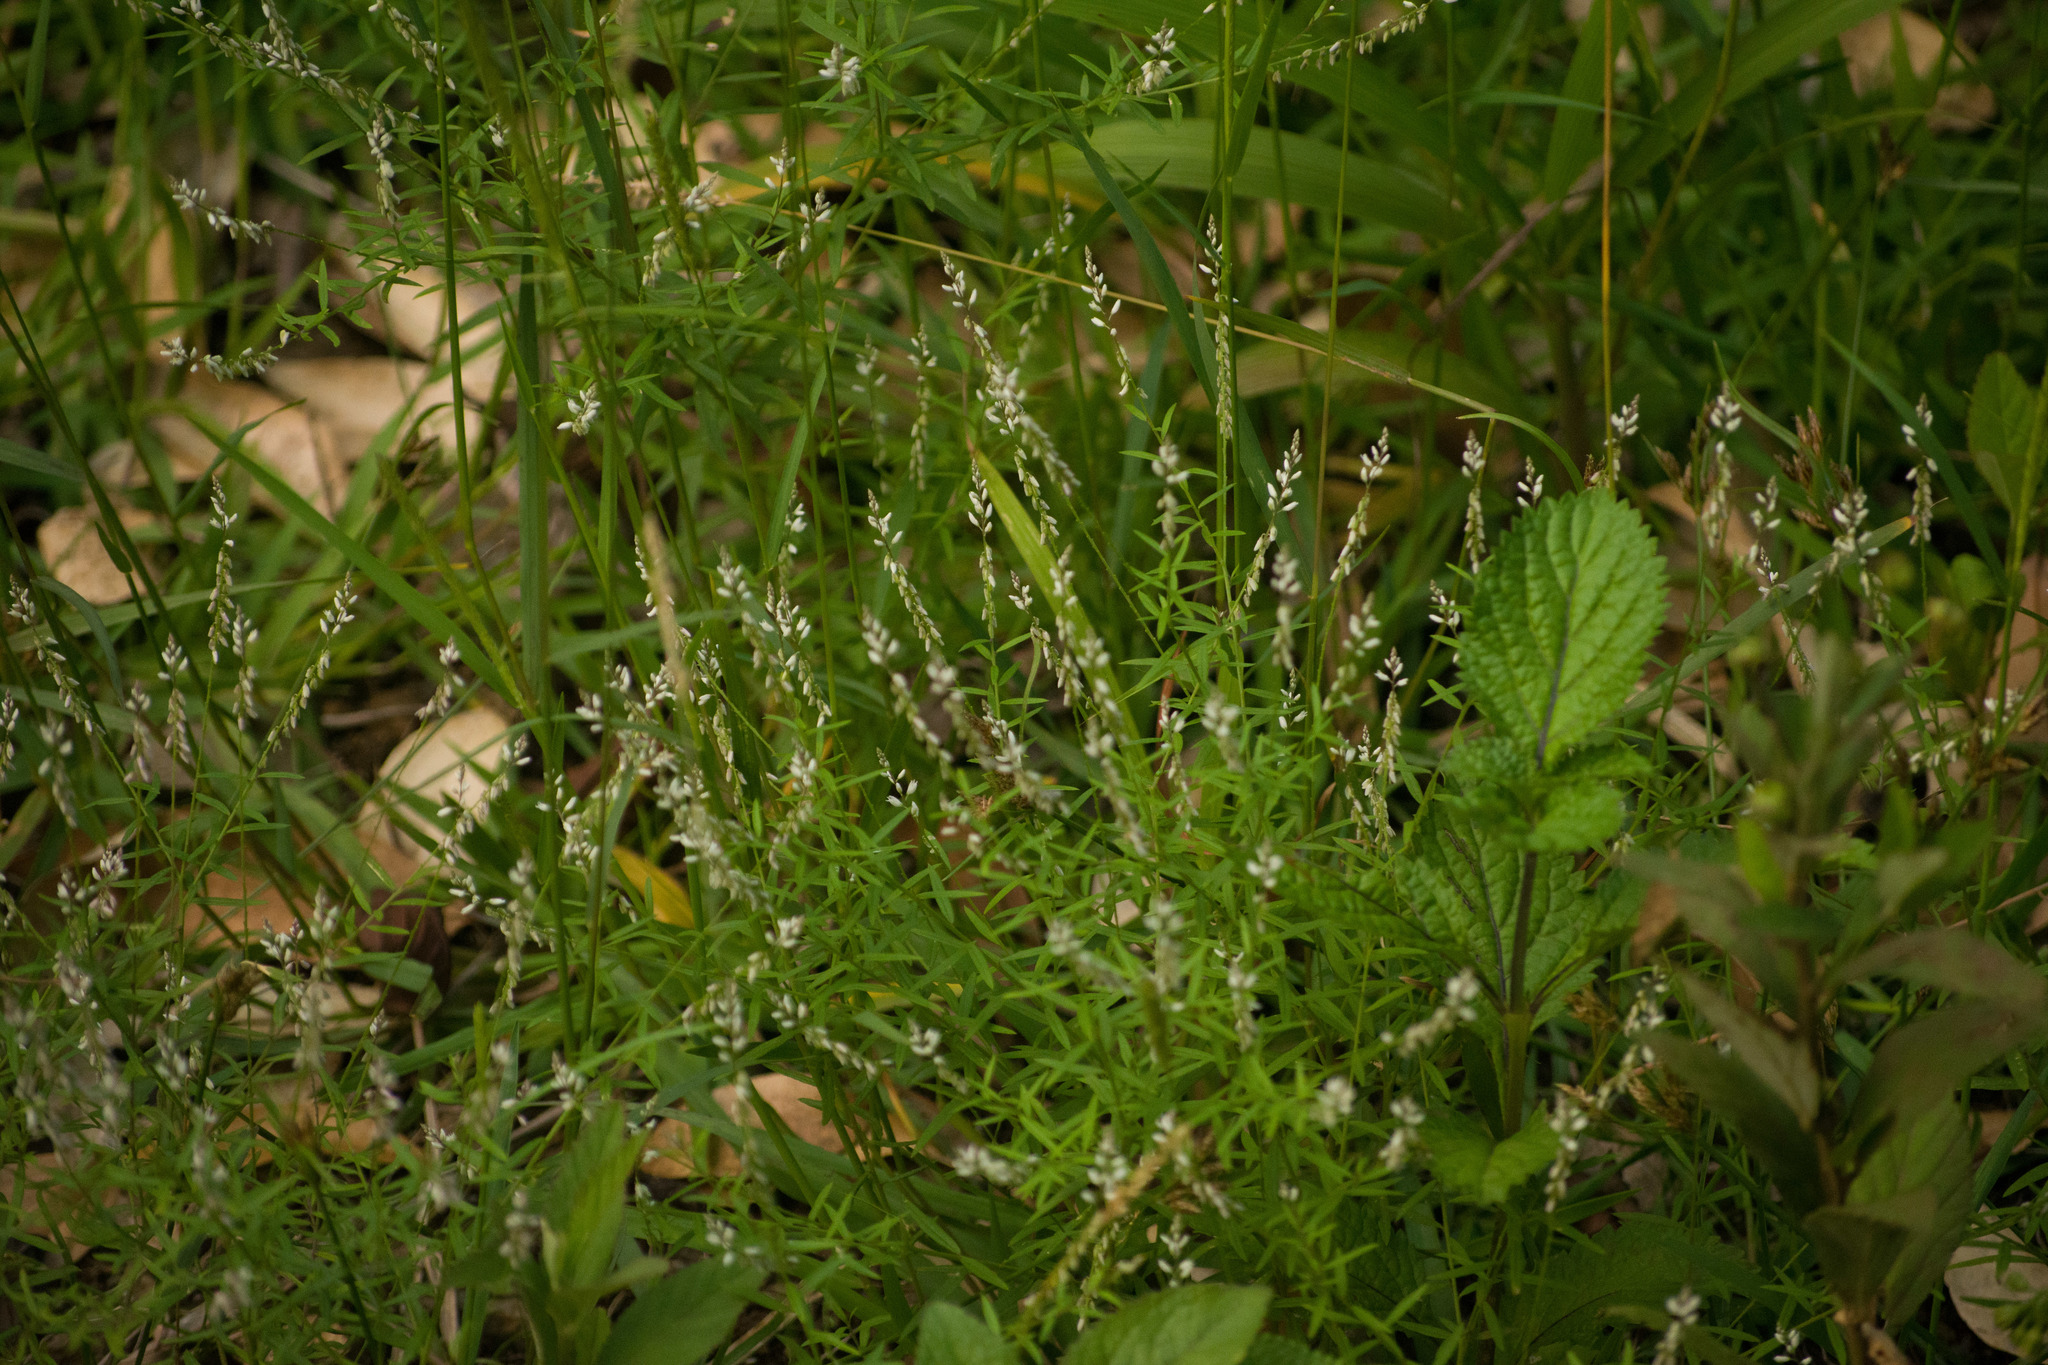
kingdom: Plantae
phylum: Tracheophyta
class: Magnoliopsida
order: Fabales
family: Polygalaceae
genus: Polygala
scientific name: Polygala paniculata
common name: Orosne
